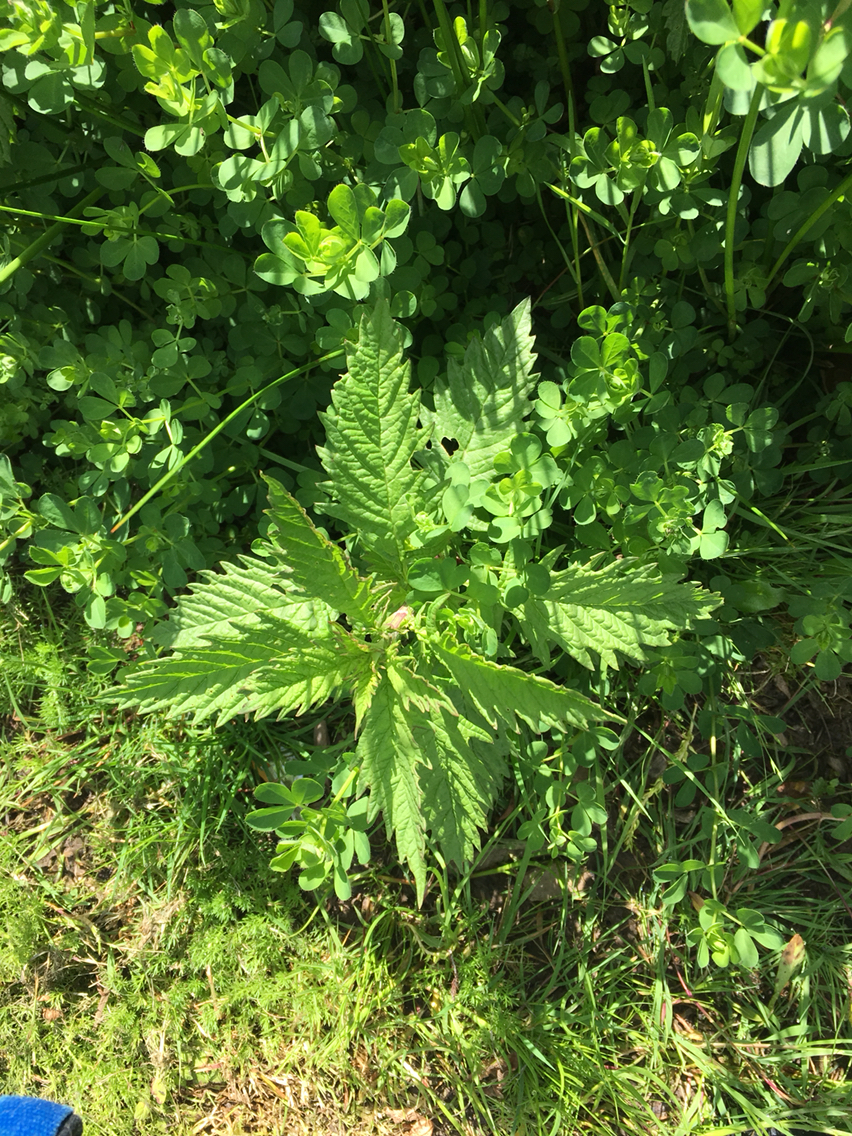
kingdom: Plantae
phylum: Tracheophyta
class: Magnoliopsida
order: Lamiales
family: Lamiaceae
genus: Lycopus
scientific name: Lycopus europaeus
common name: European bugleweed
